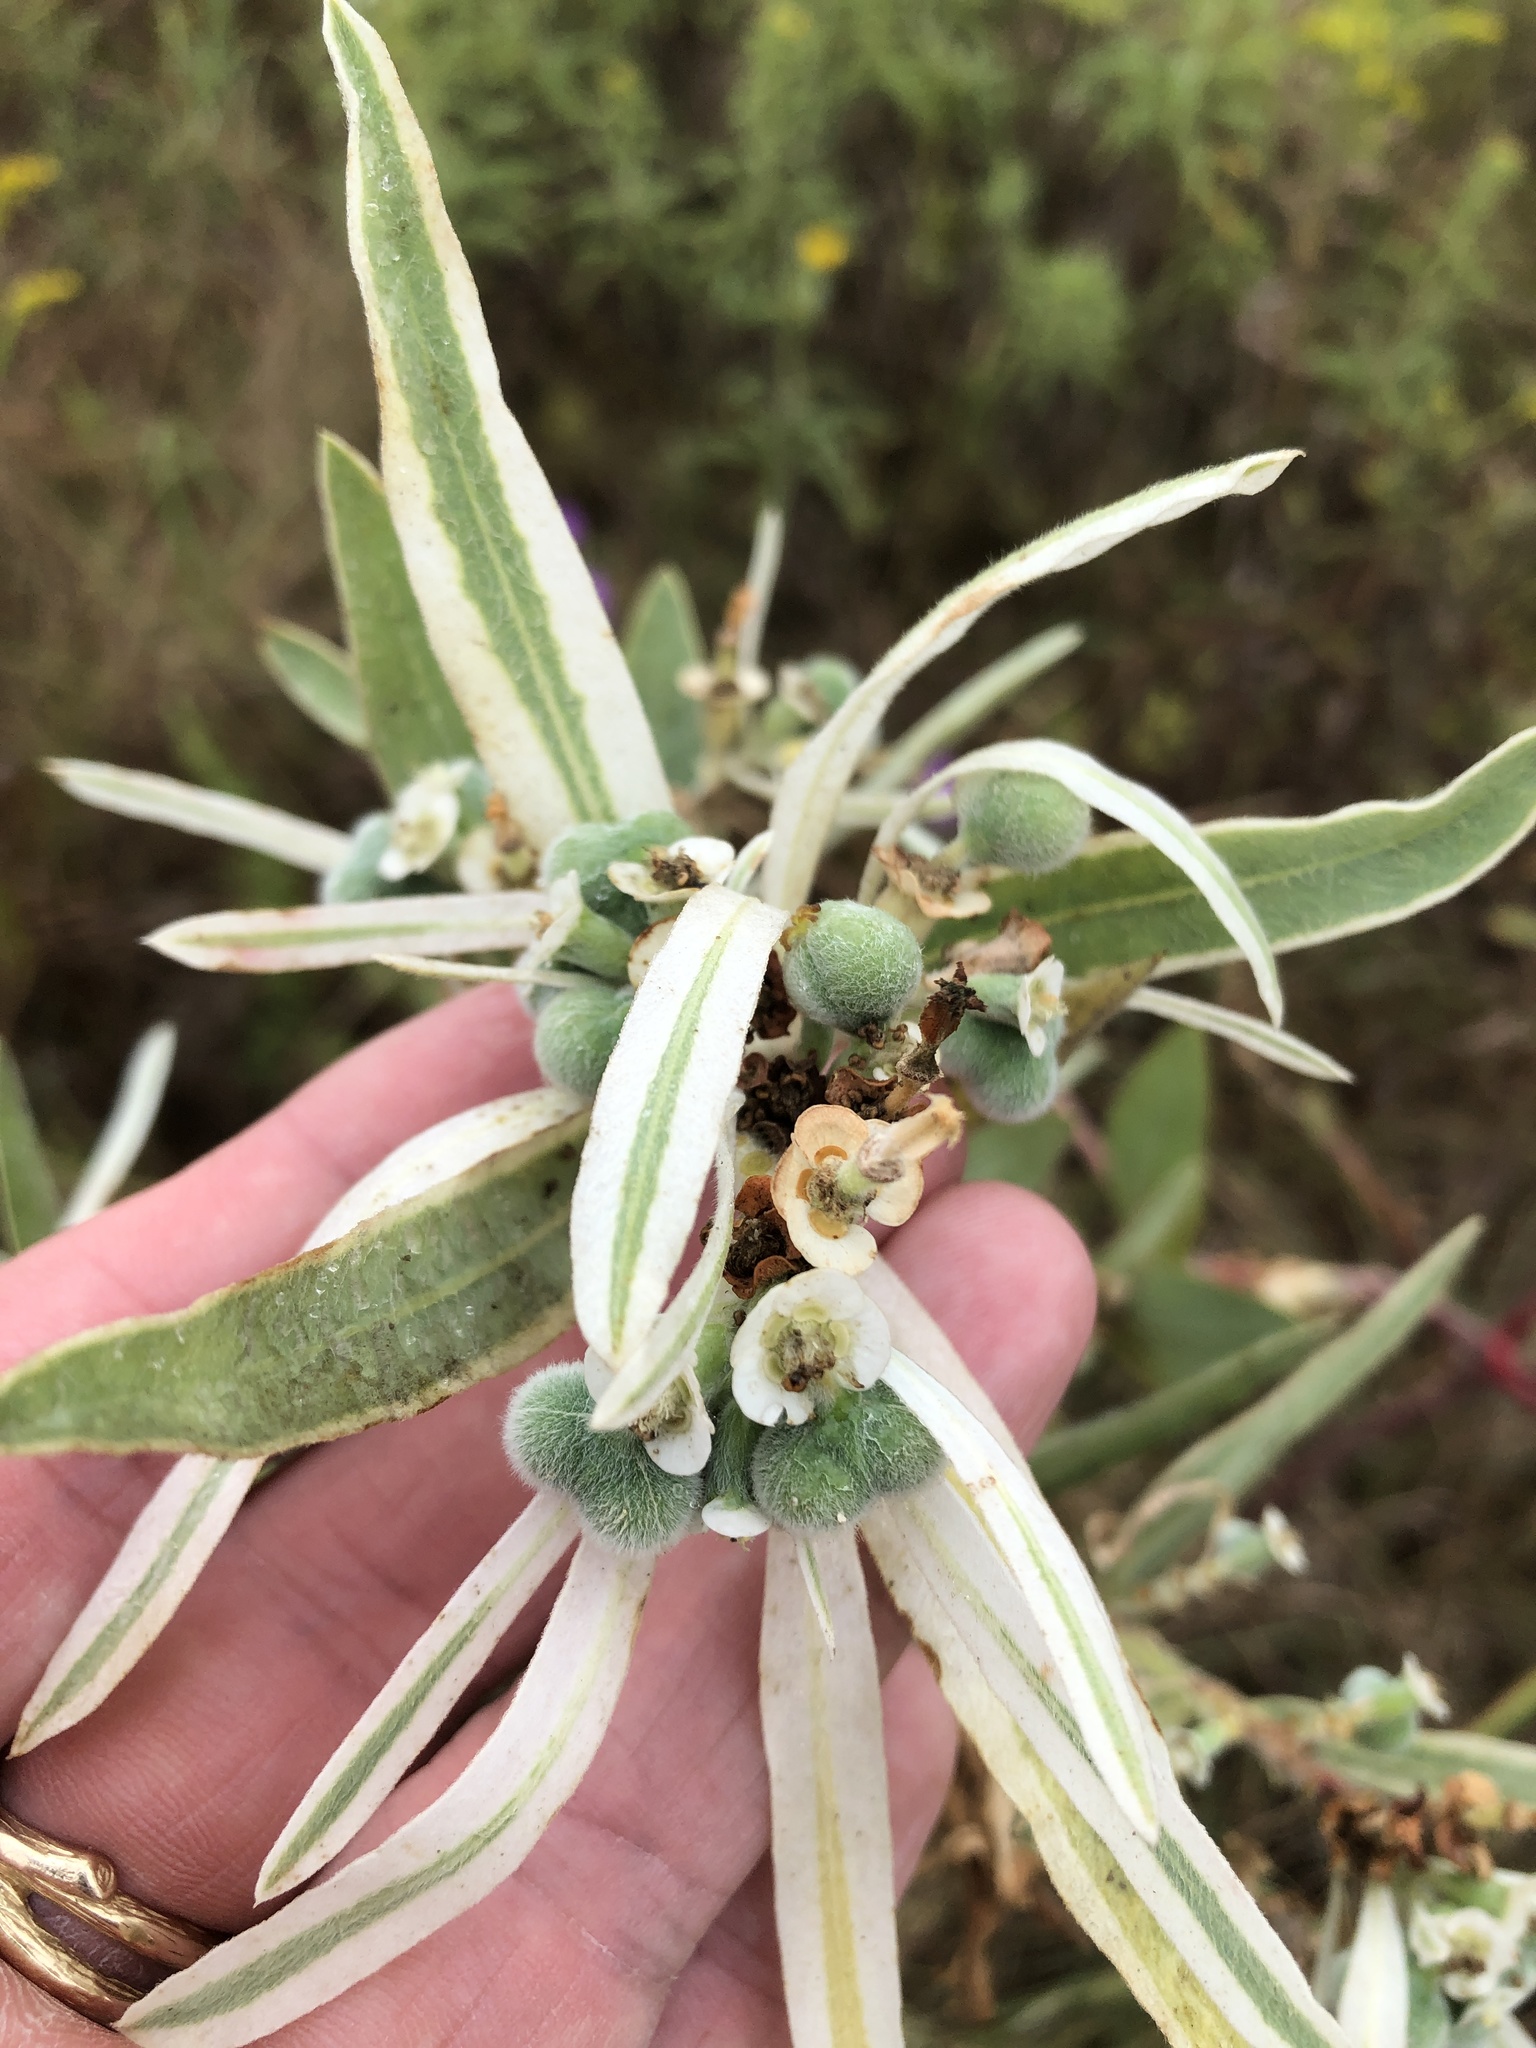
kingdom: Plantae
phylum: Tracheophyta
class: Magnoliopsida
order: Malpighiales
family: Euphorbiaceae
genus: Euphorbia
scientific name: Euphorbia bicolor
